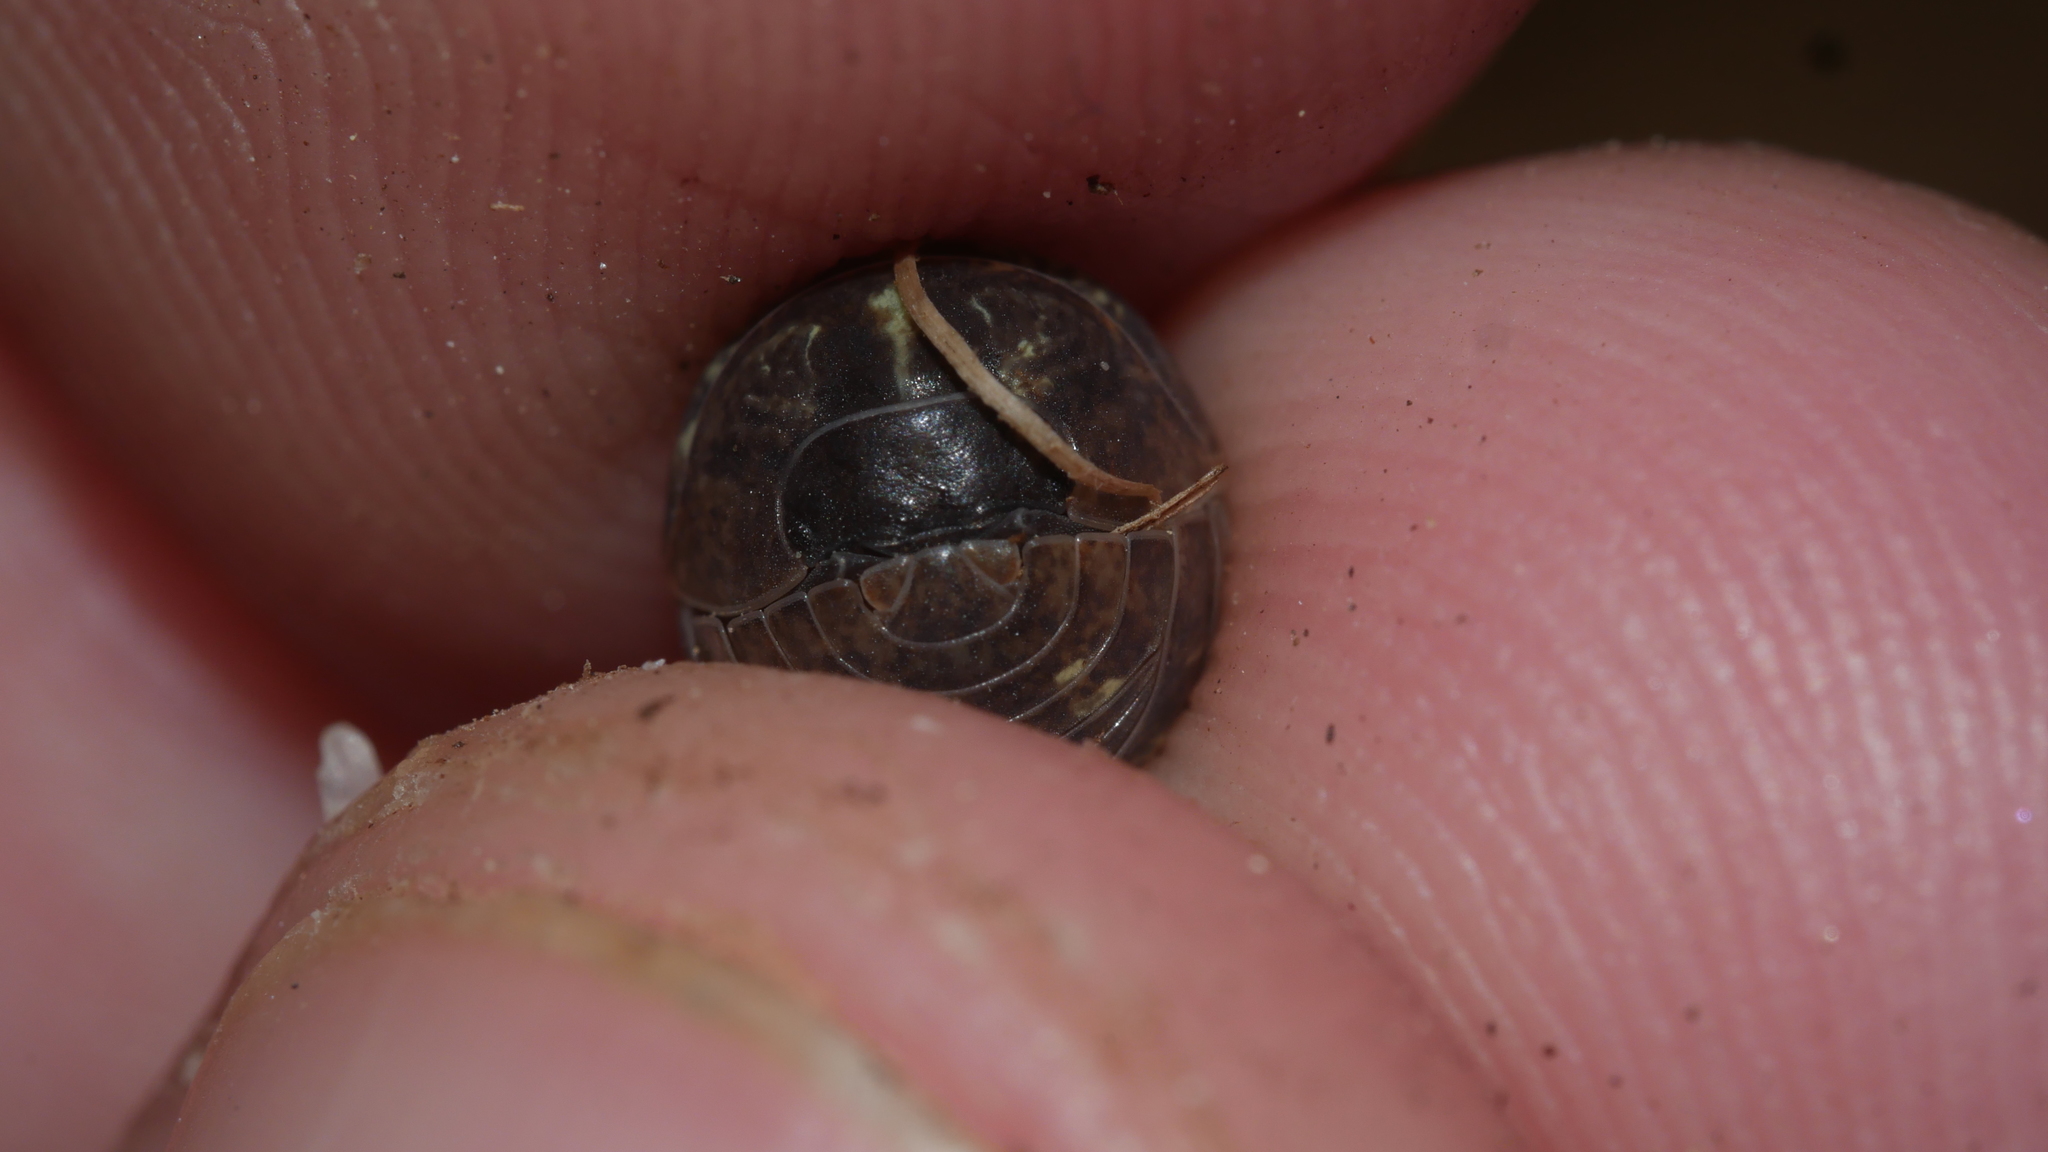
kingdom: Animalia
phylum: Arthropoda
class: Malacostraca
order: Isopoda
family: Armadillidiidae
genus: Armadillidium
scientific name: Armadillidium vulgare
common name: Common pill woodlouse
